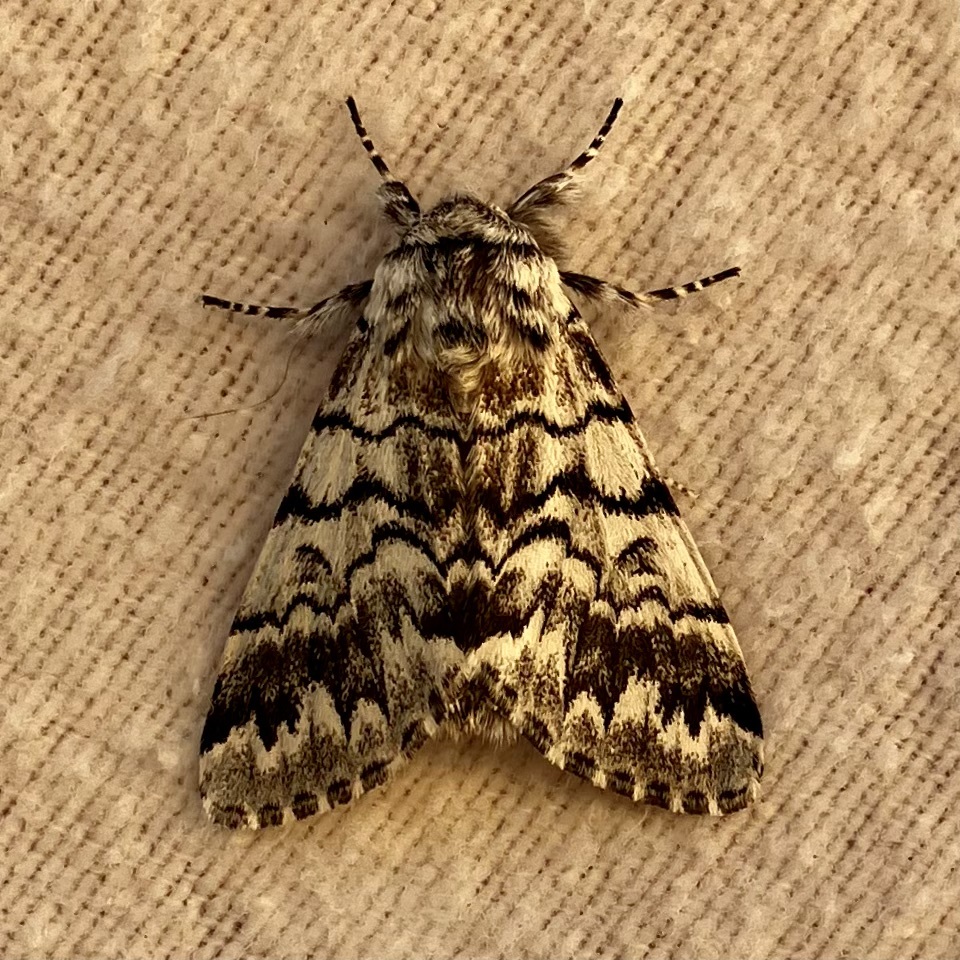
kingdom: Animalia
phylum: Arthropoda
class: Insecta
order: Lepidoptera
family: Noctuidae
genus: Panthea
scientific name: Panthea virginarius
